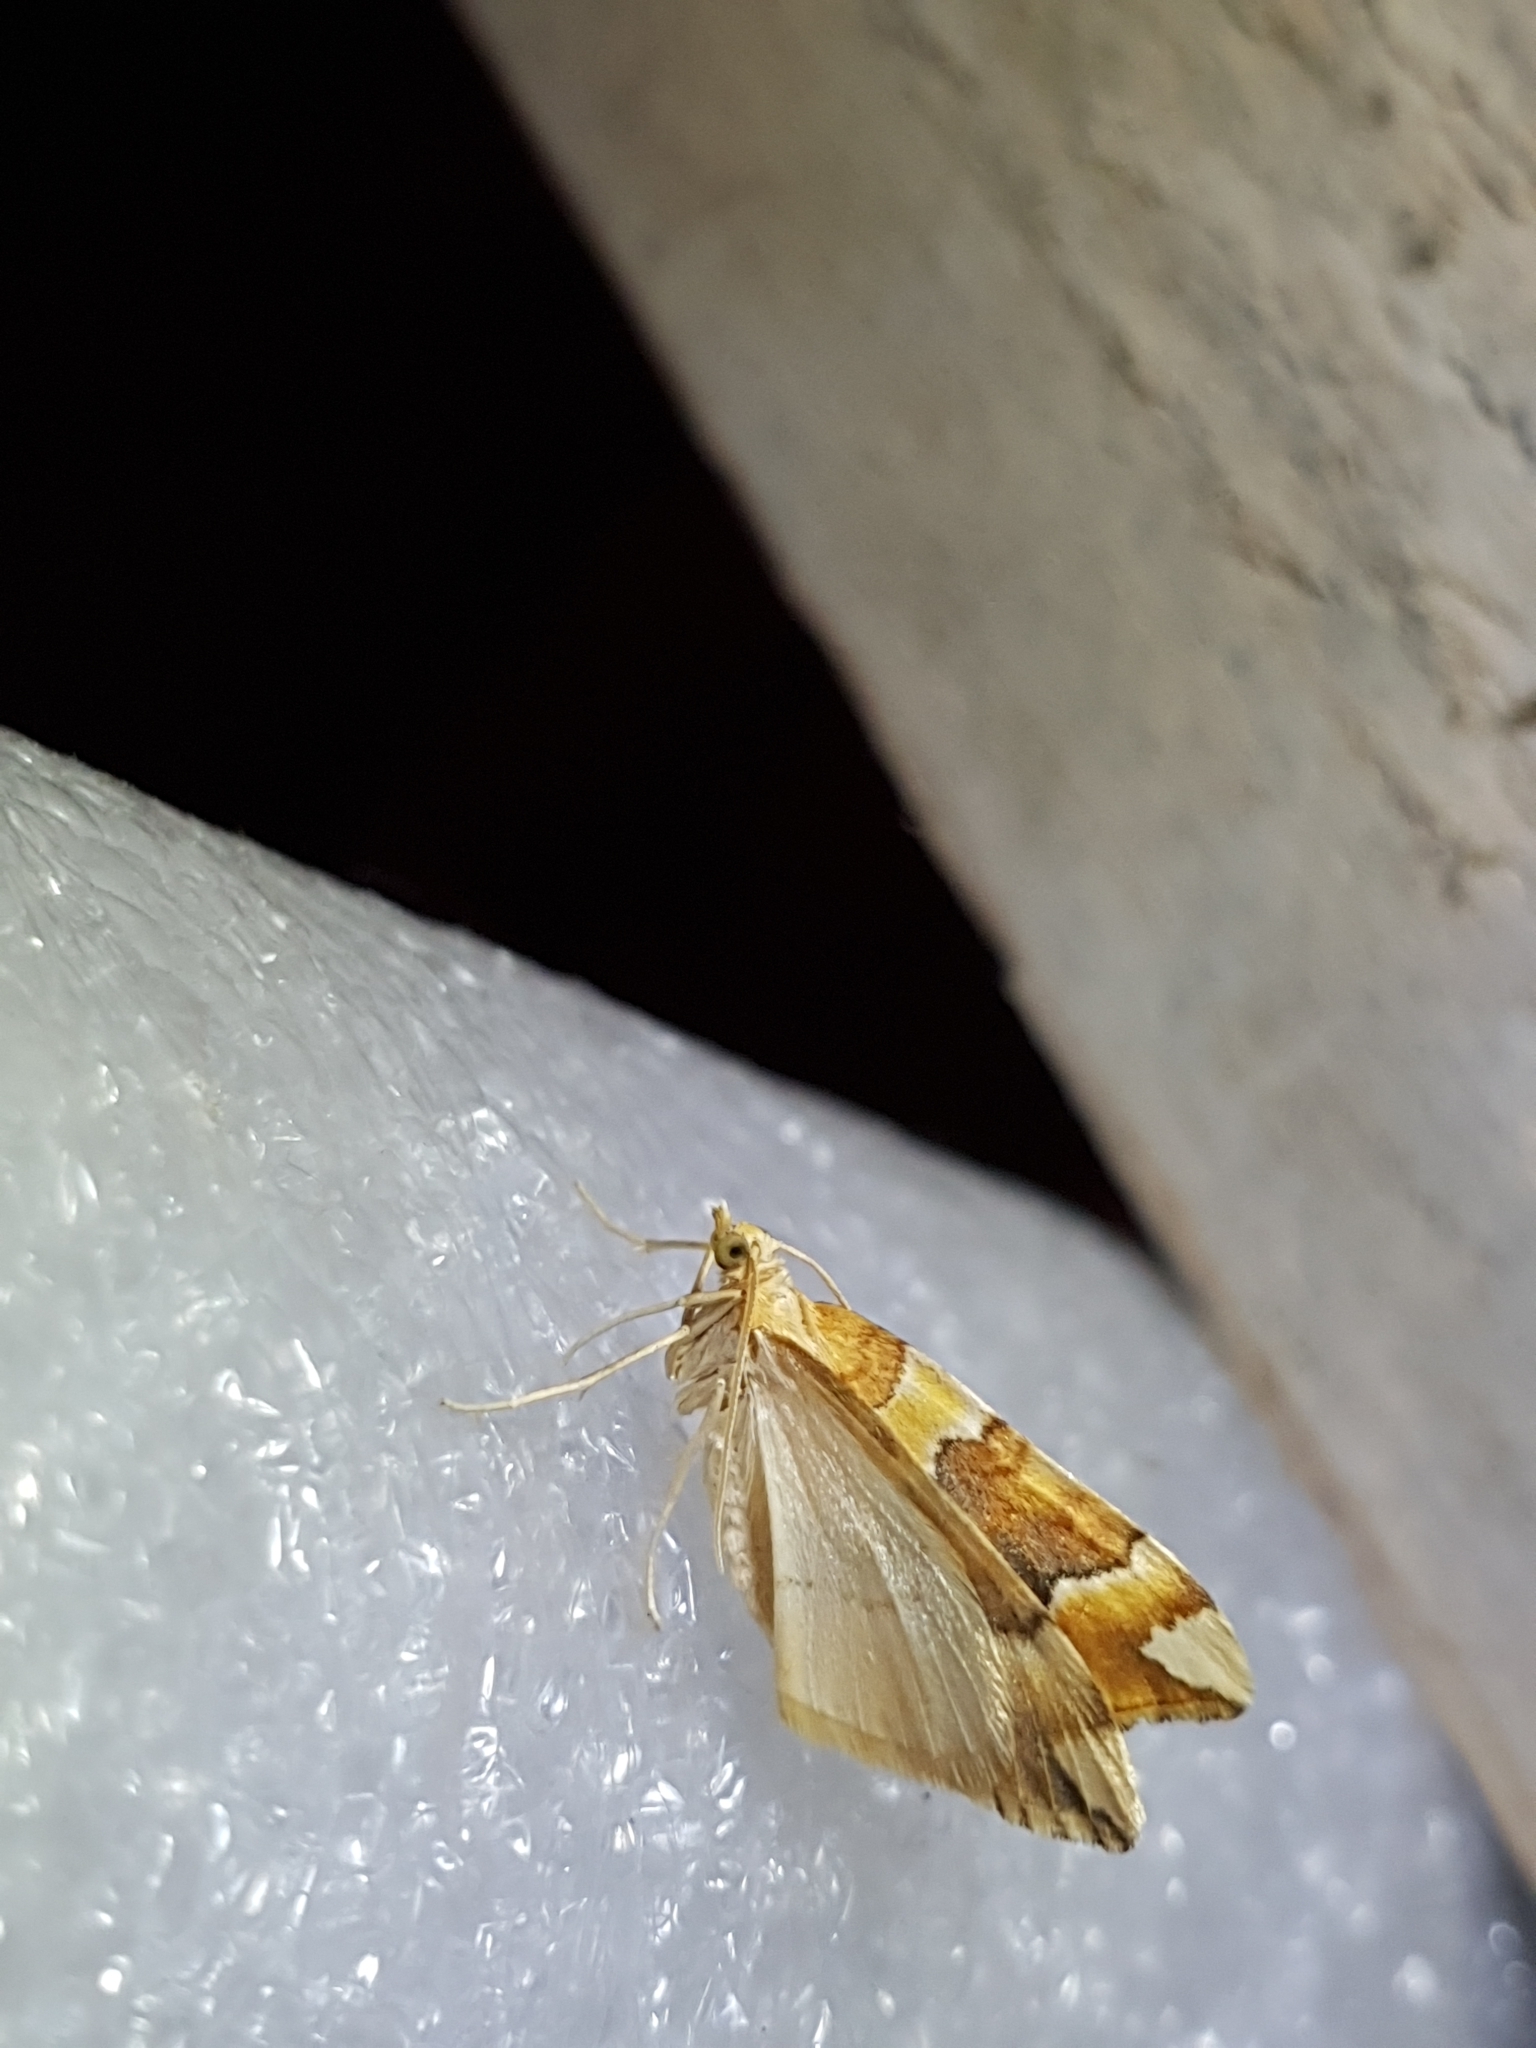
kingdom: Animalia
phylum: Arthropoda
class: Insecta
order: Lepidoptera
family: Geometridae
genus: Cidaria
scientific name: Cidaria fulvata
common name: Barred yellow
